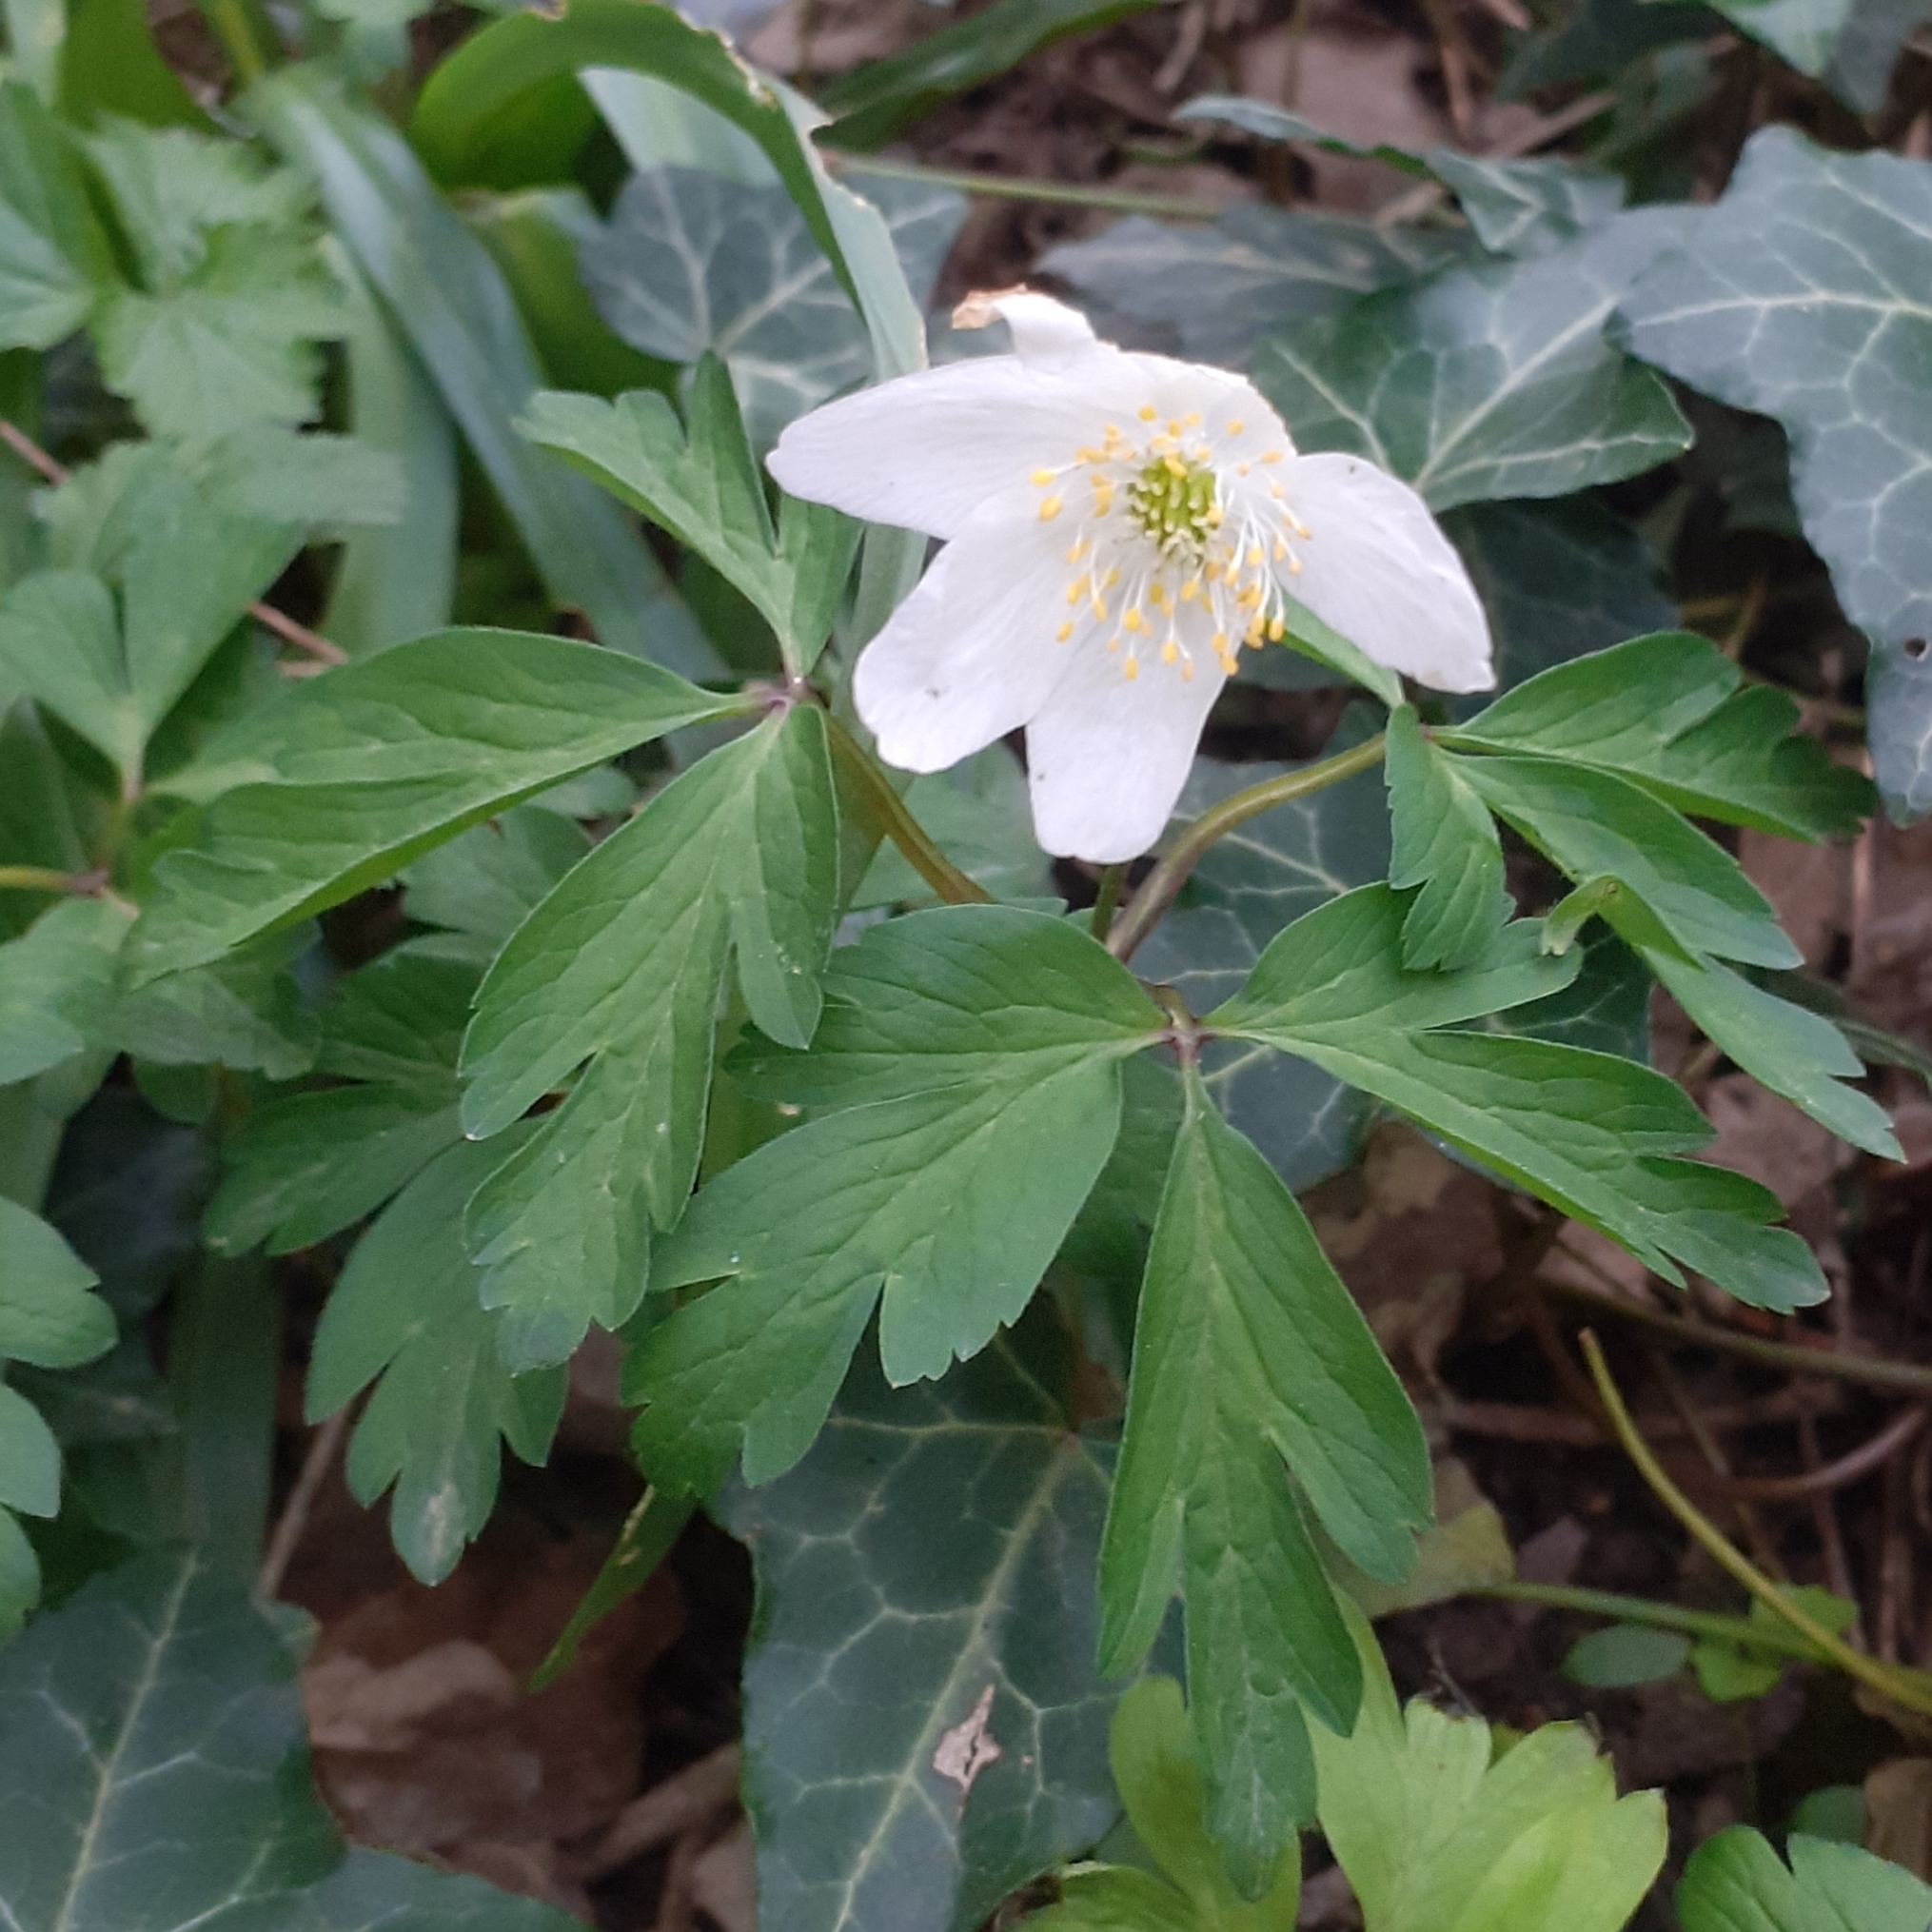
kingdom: Plantae
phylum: Tracheophyta
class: Magnoliopsida
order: Ranunculales
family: Ranunculaceae
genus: Anemone
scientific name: Anemone nemorosa
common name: Wood anemone
